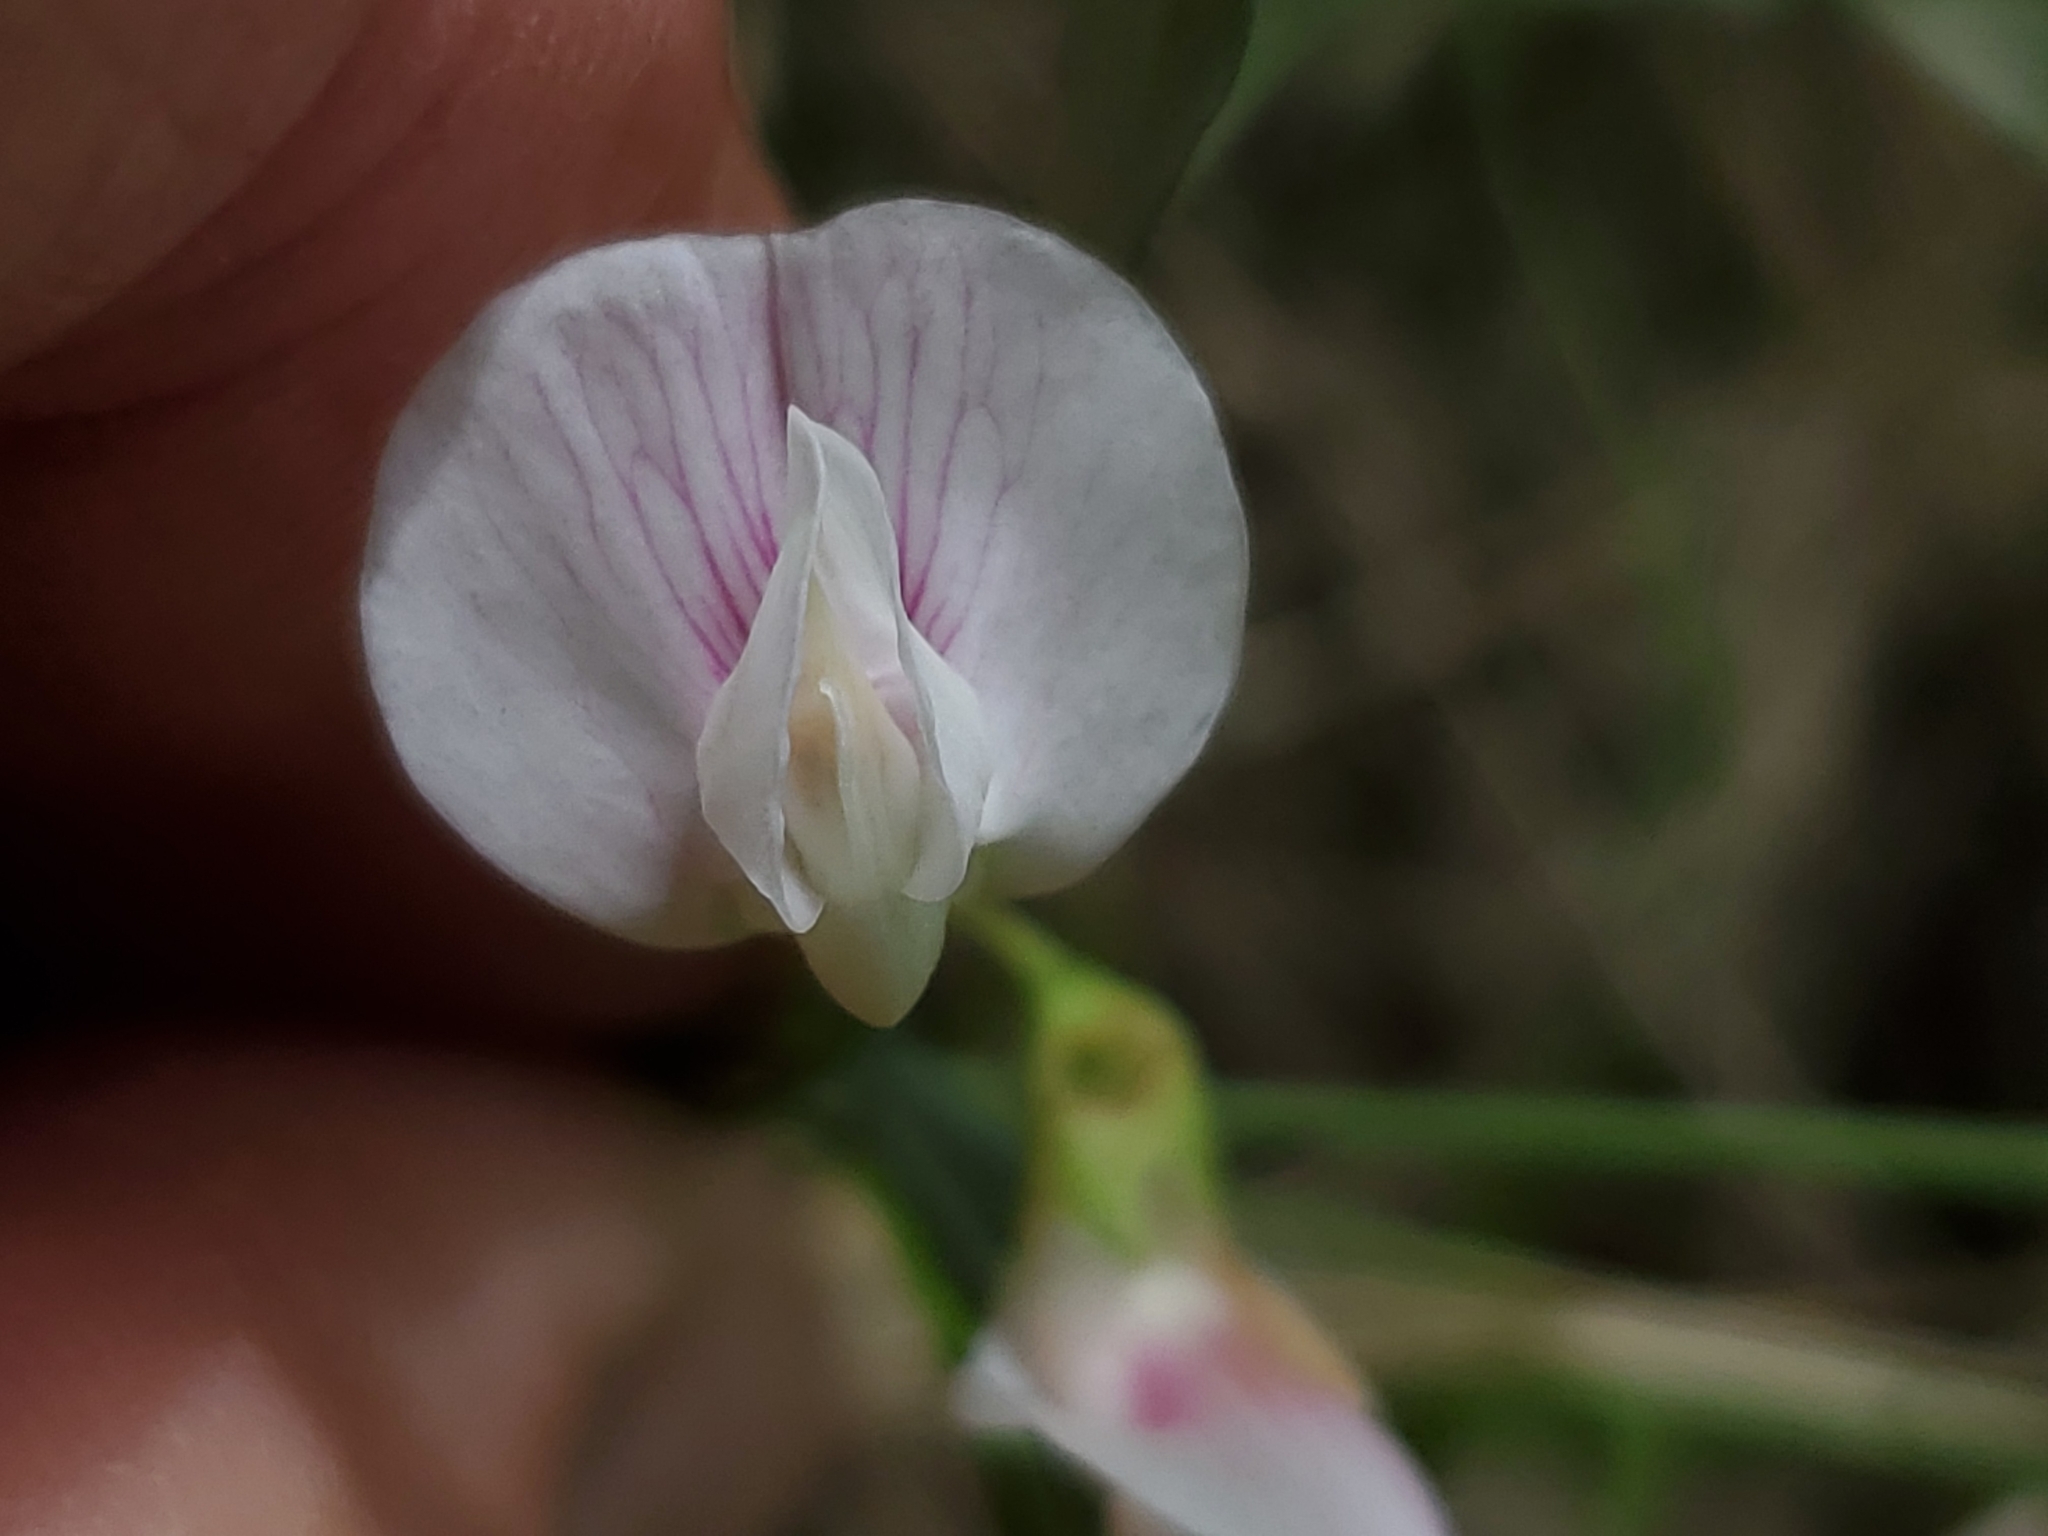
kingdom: Plantae
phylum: Tracheophyta
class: Magnoliopsida
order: Fabales
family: Fabaceae
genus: Lathyrus
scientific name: Lathyrus lanszwertii
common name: Lanszwert's vetchling
